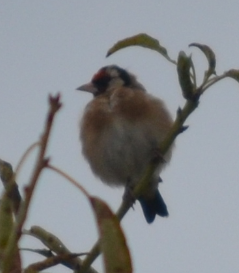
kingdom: Animalia
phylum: Chordata
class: Aves
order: Passeriformes
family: Fringillidae
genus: Carduelis
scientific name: Carduelis carduelis
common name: European goldfinch
